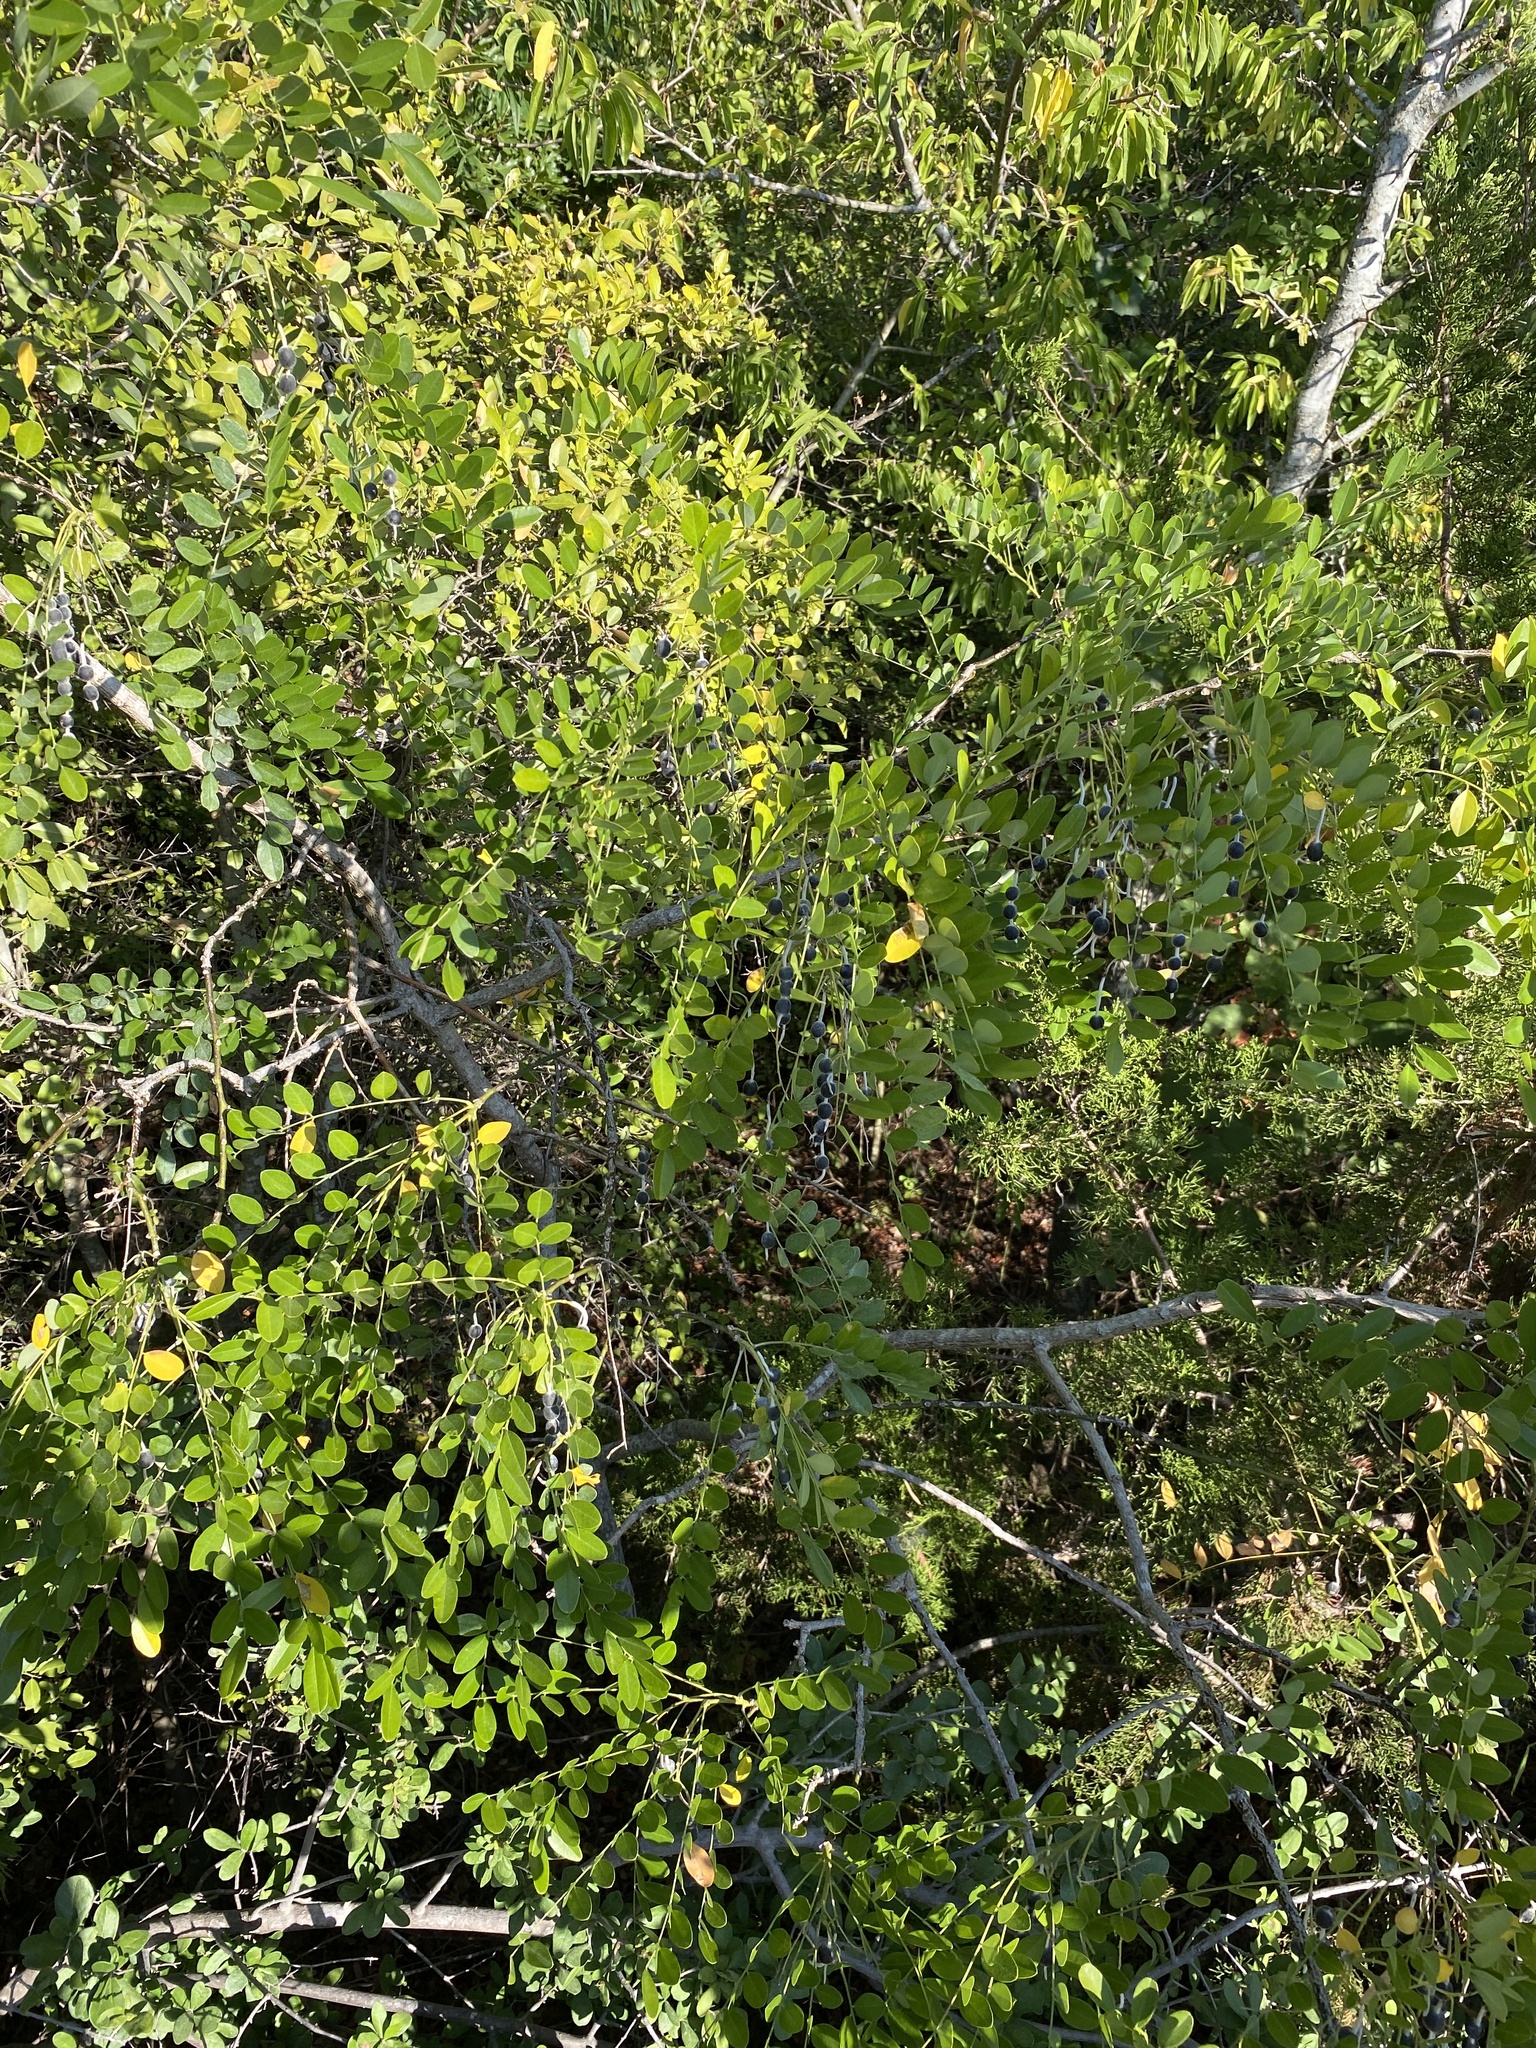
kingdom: Plantae
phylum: Tracheophyta
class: Magnoliopsida
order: Fabales
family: Fabaceae
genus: Styphnolobium
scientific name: Styphnolobium affine
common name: Texas sophora
